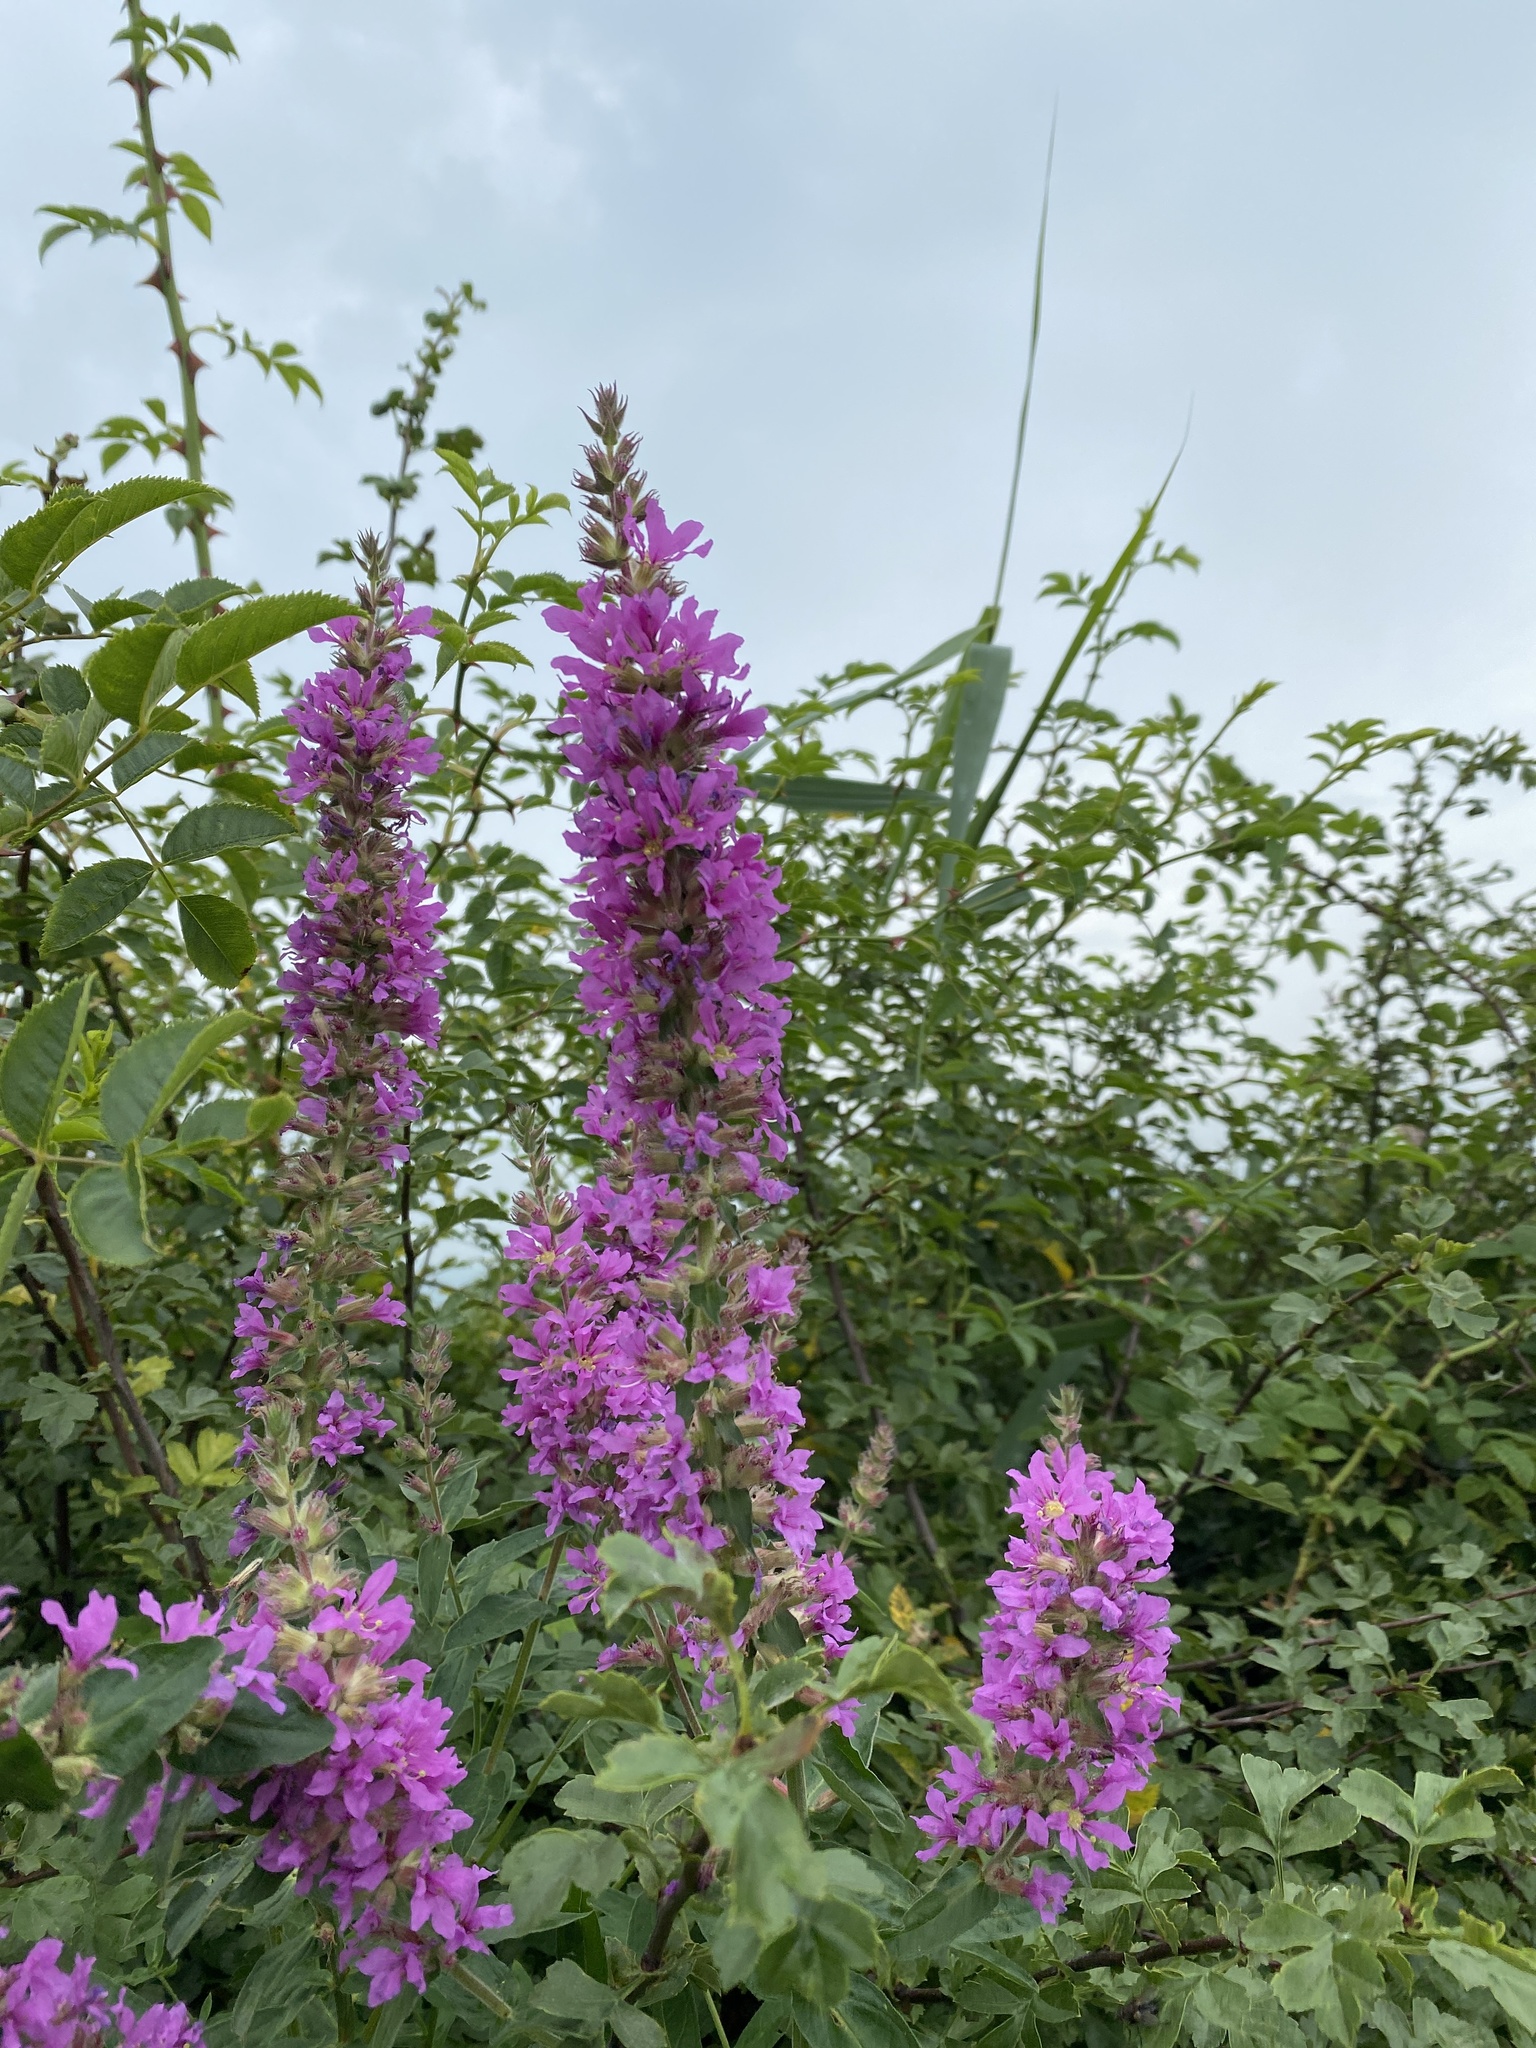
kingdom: Plantae
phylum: Tracheophyta
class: Magnoliopsida
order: Myrtales
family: Lythraceae
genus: Lythrum
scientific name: Lythrum salicaria
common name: Purple loosestrife
